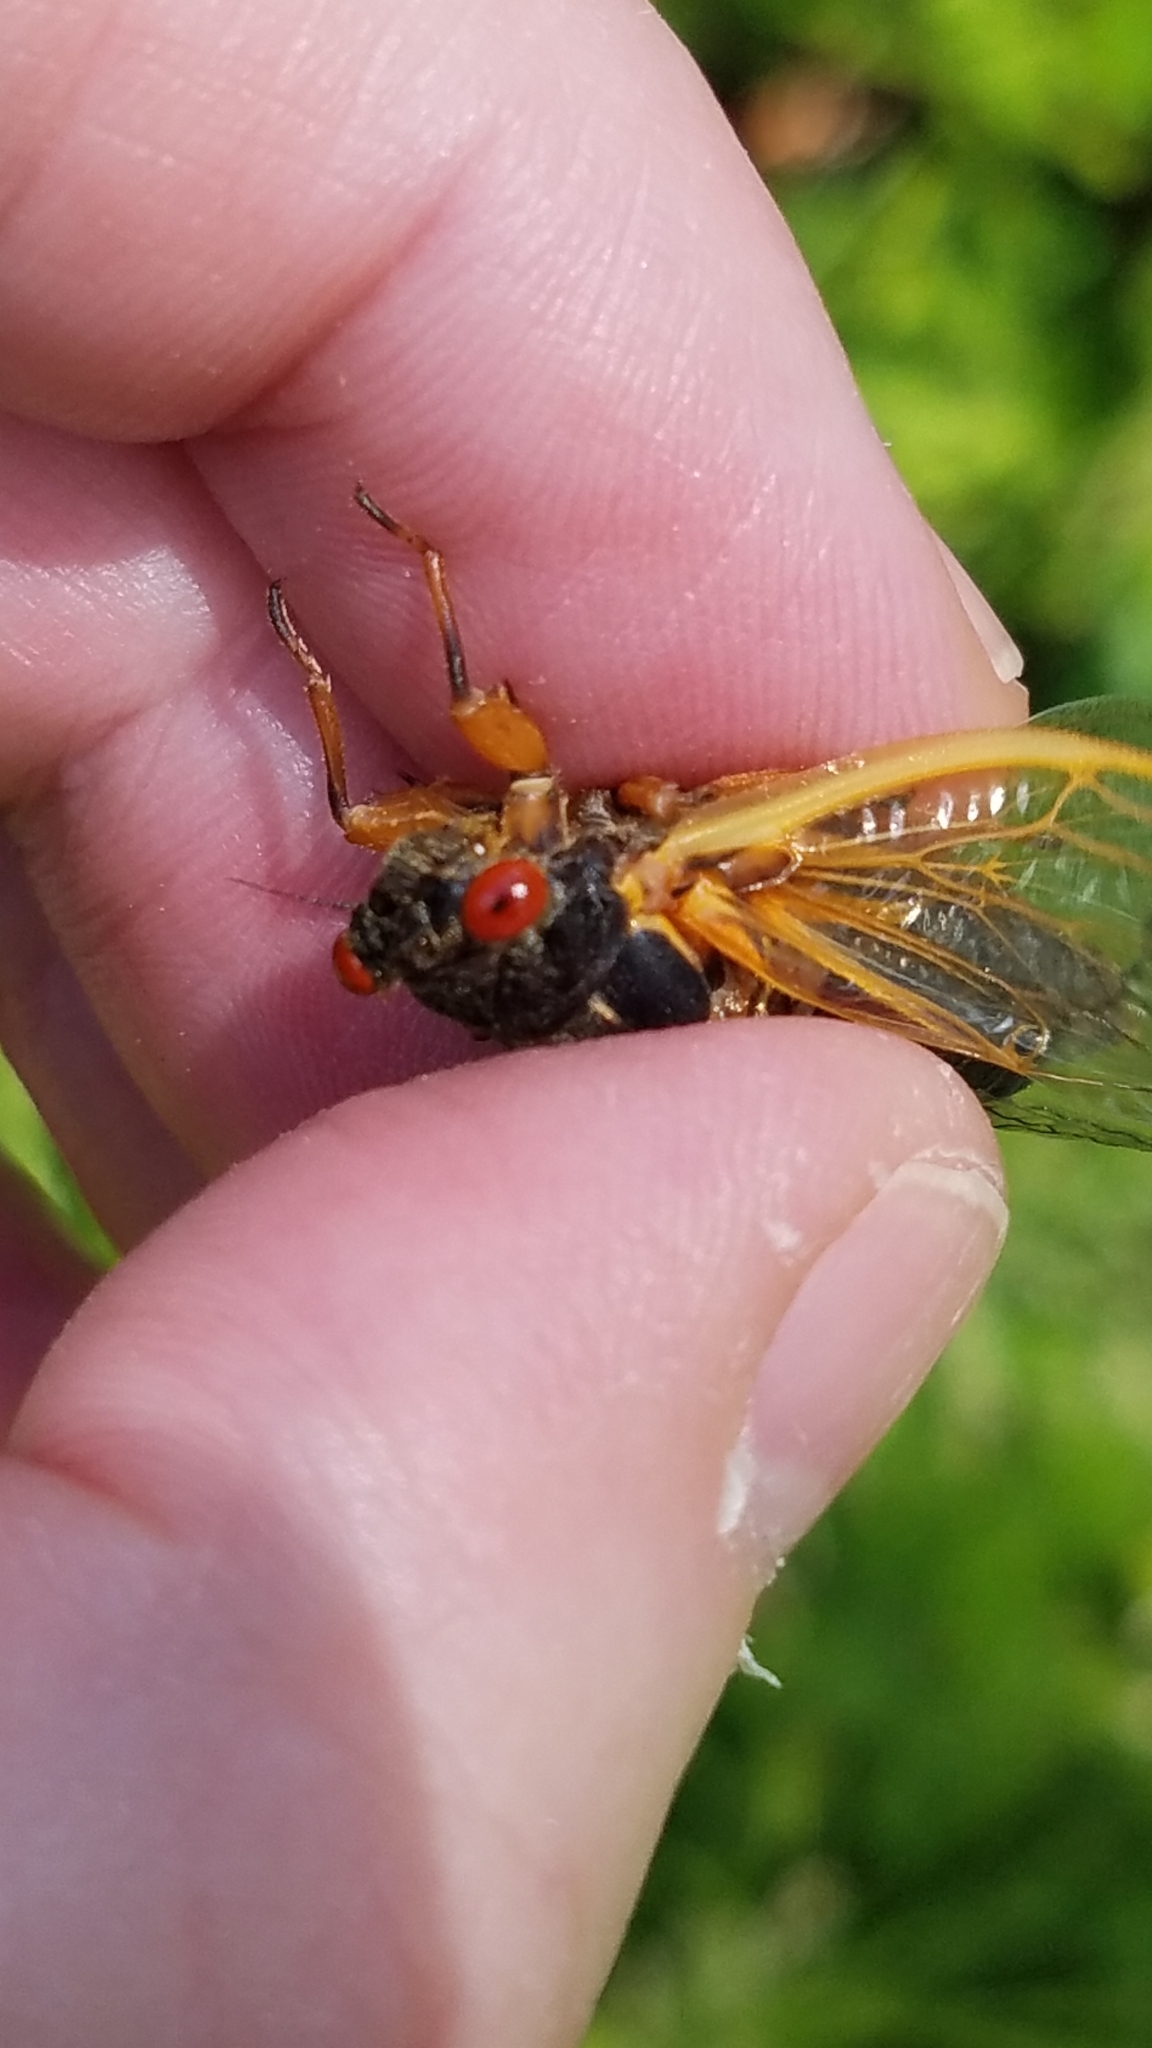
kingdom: Animalia
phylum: Arthropoda
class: Insecta
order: Hemiptera
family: Cicadidae
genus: Magicicada
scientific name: Magicicada cassini
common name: Cassin's 17-year cicada
